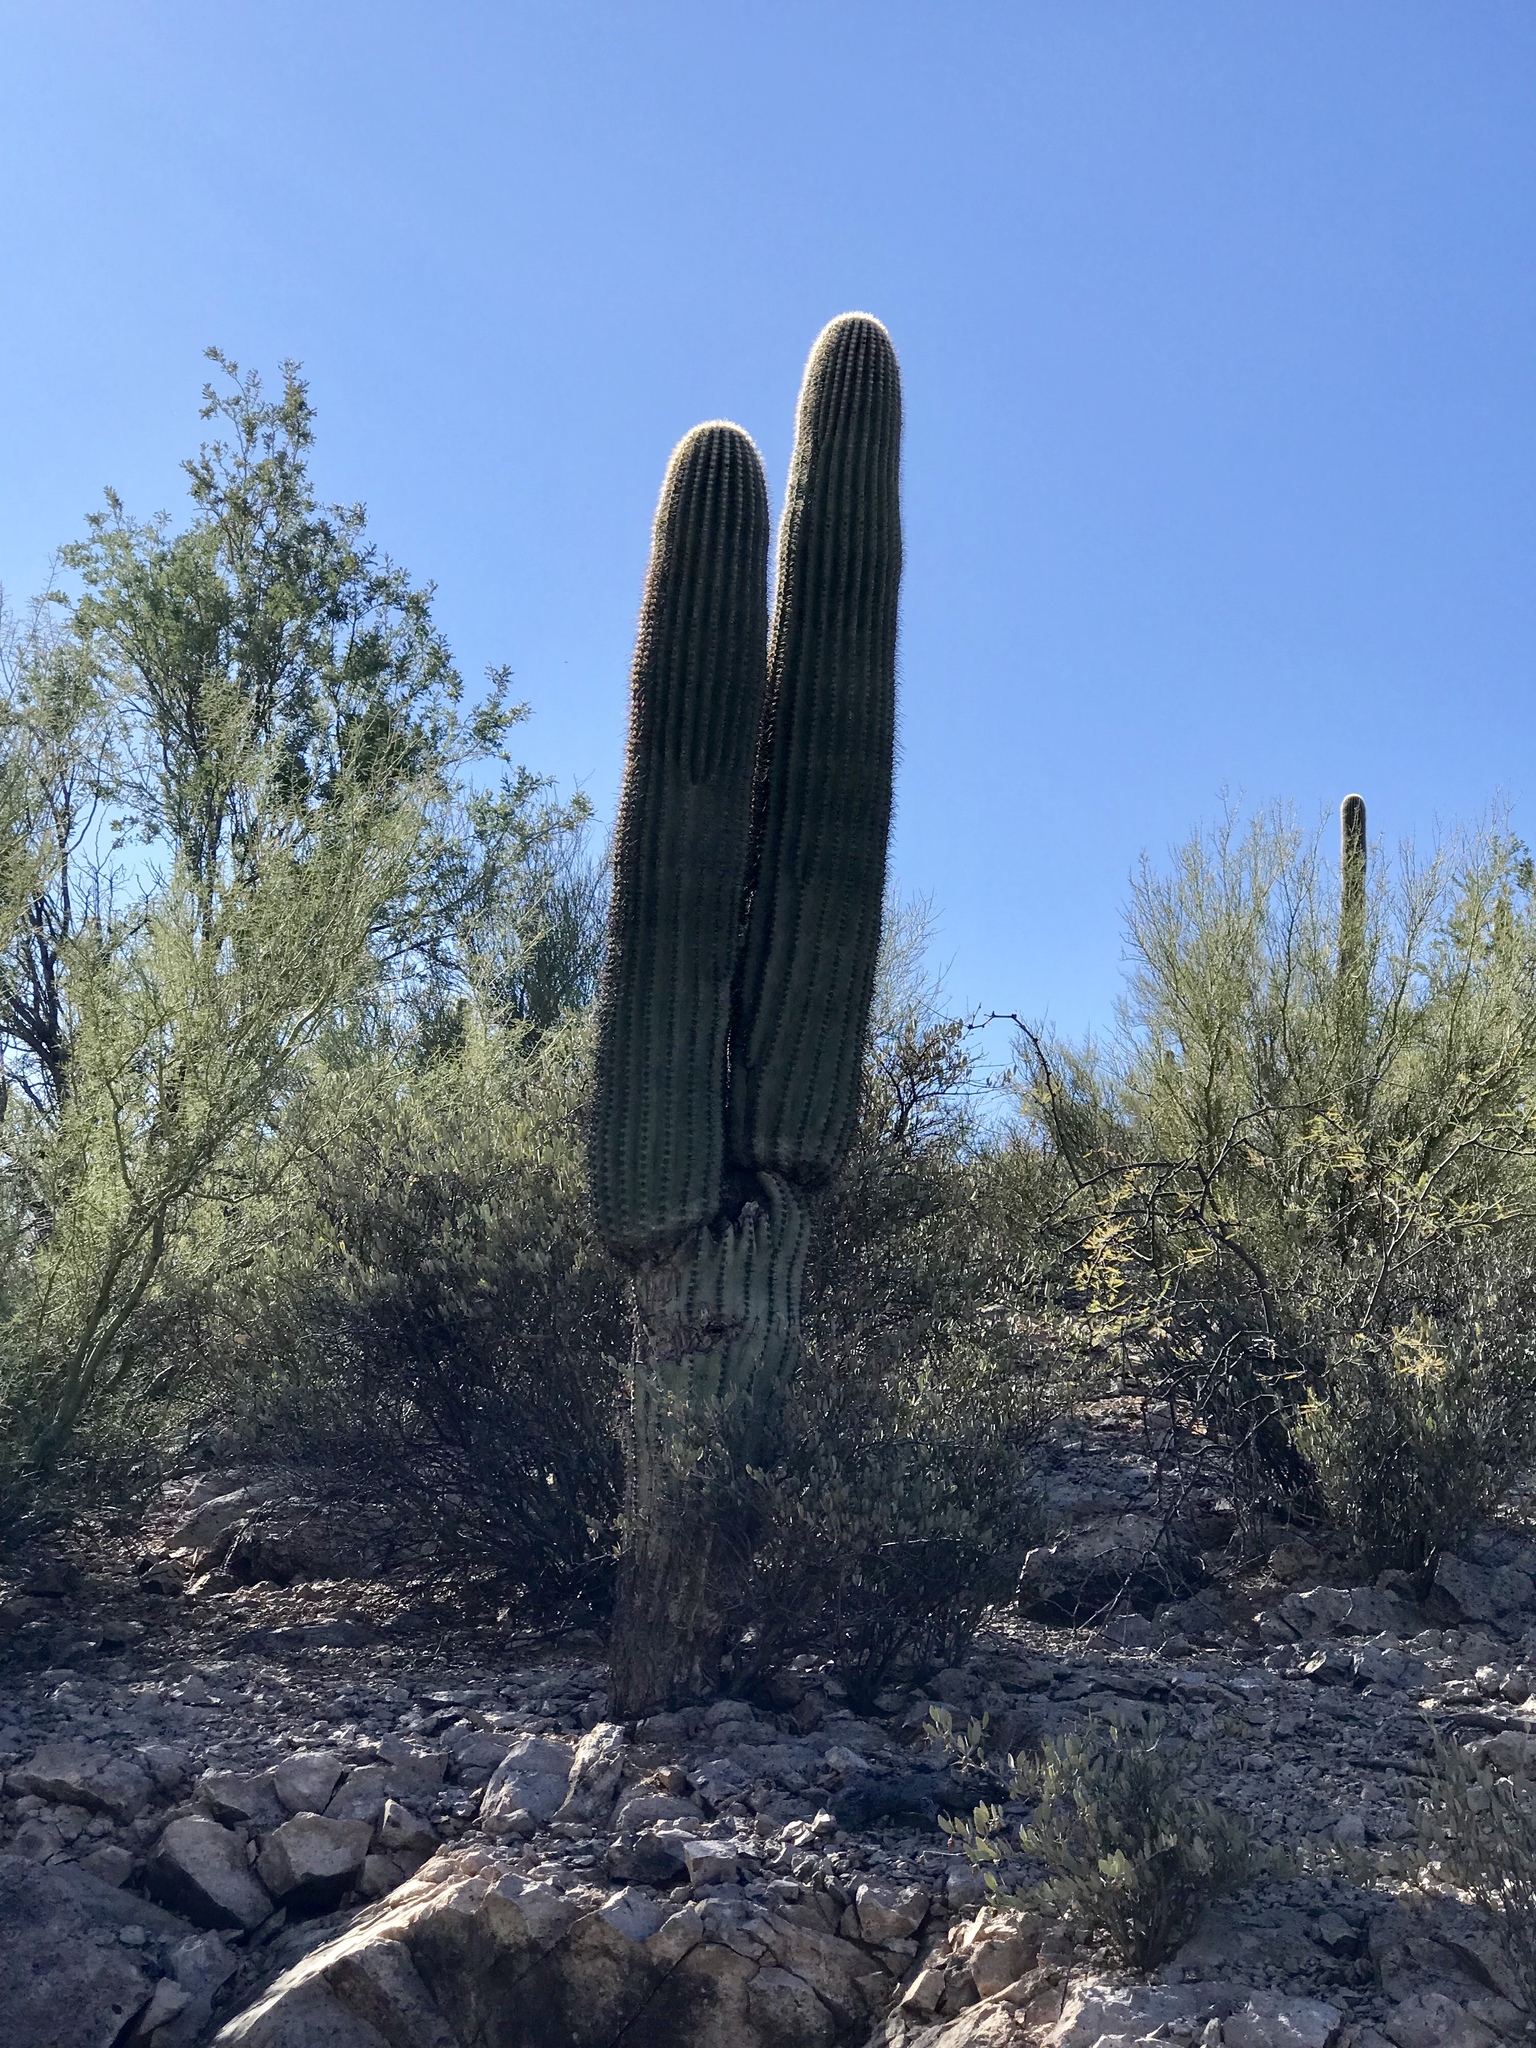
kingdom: Plantae
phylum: Tracheophyta
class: Magnoliopsida
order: Caryophyllales
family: Cactaceae
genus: Carnegiea
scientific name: Carnegiea gigantea
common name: Saguaro
